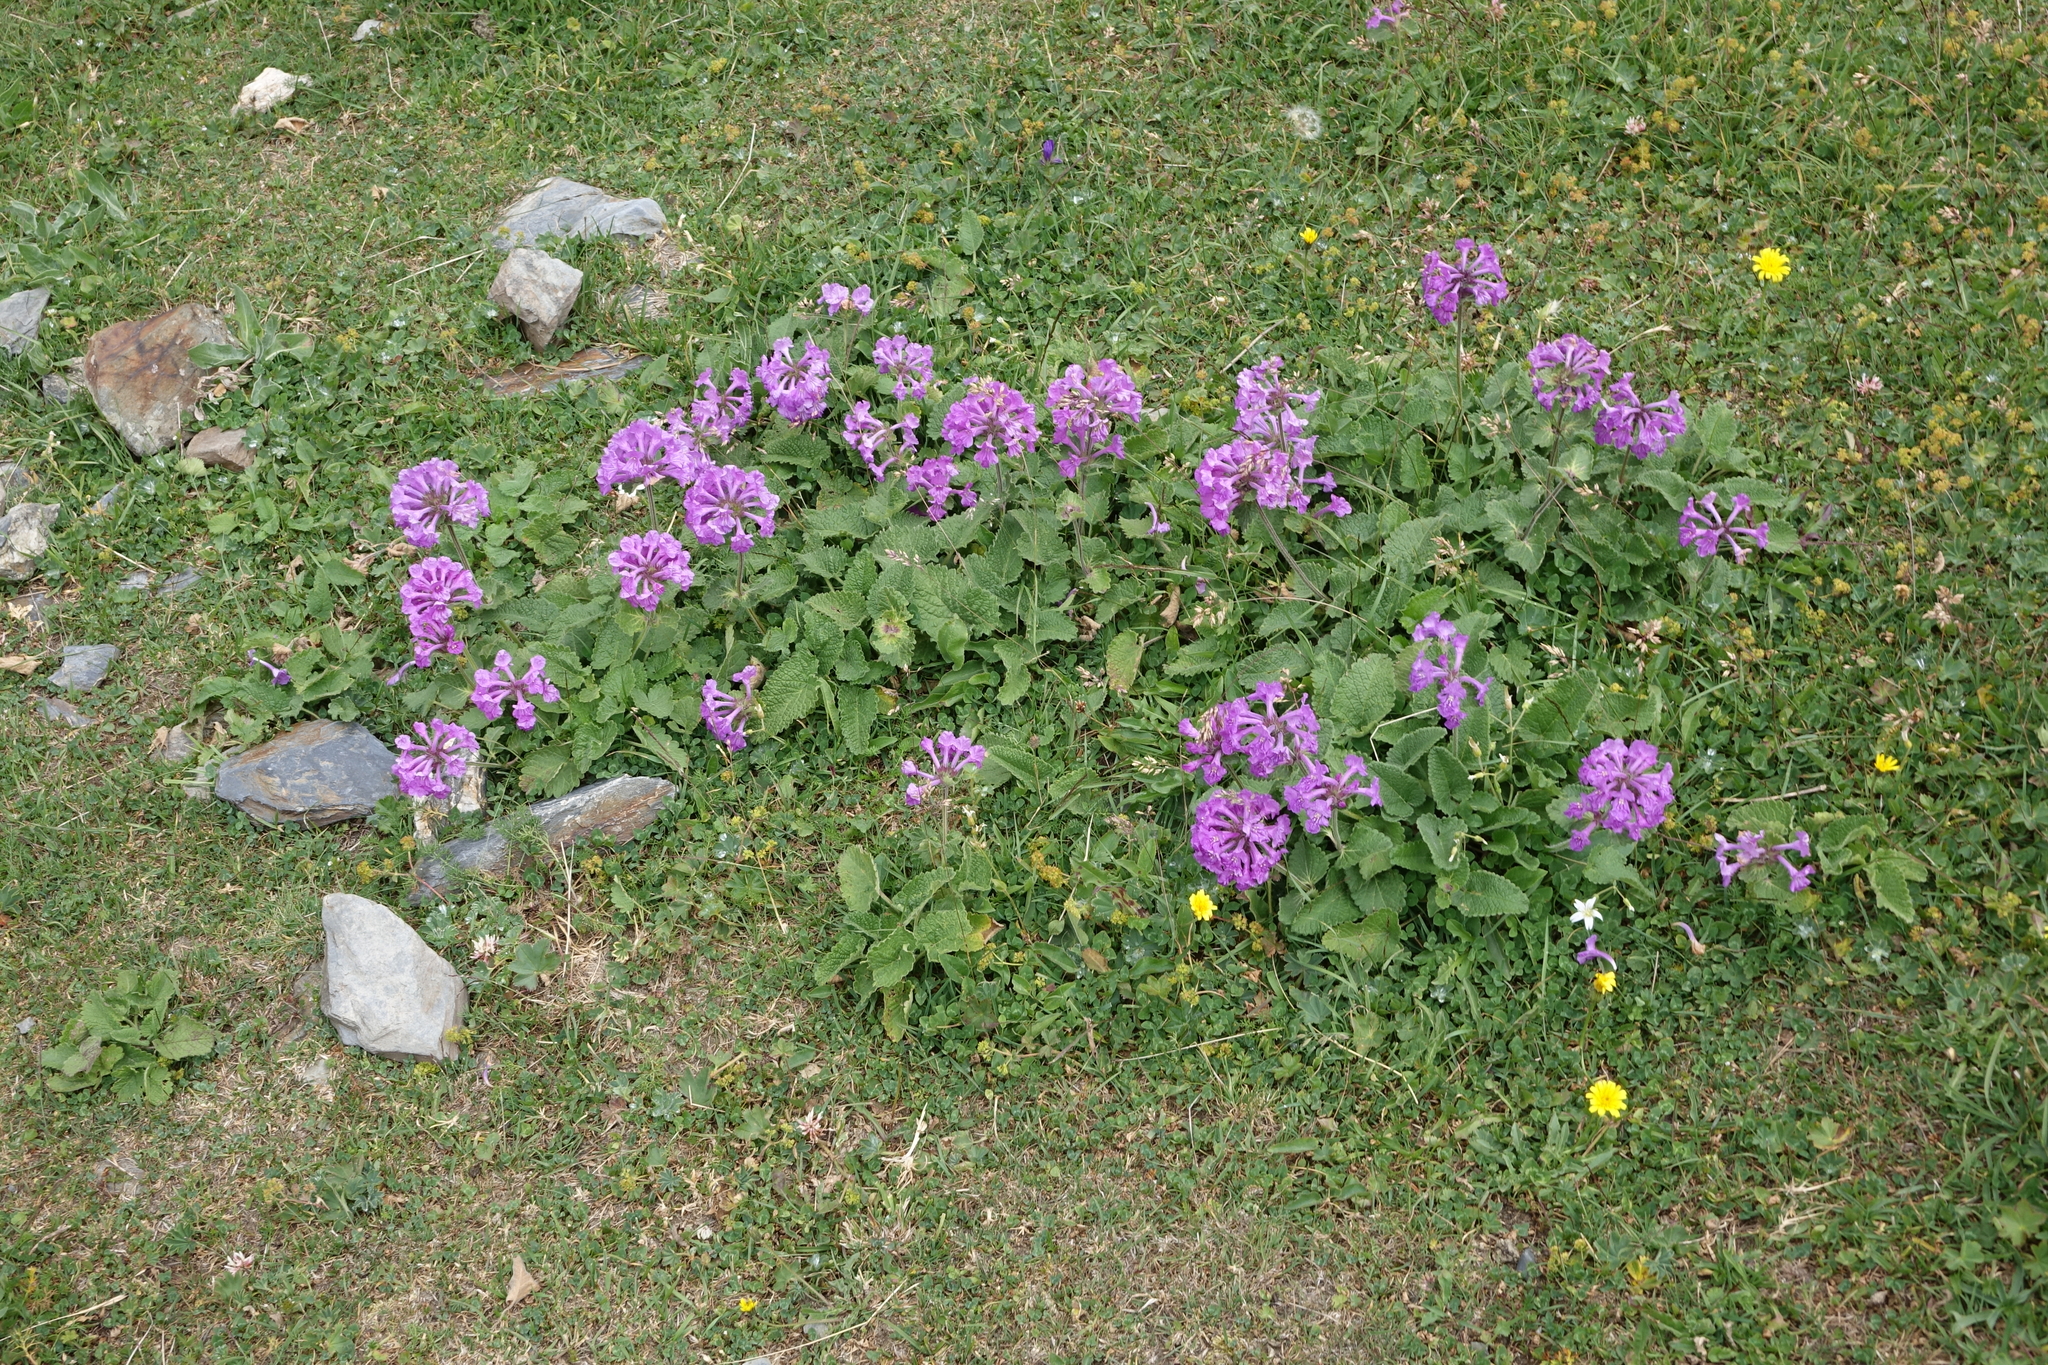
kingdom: Plantae
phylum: Tracheophyta
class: Magnoliopsida
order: Lamiales
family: Lamiaceae
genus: Betonica
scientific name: Betonica macrantha
